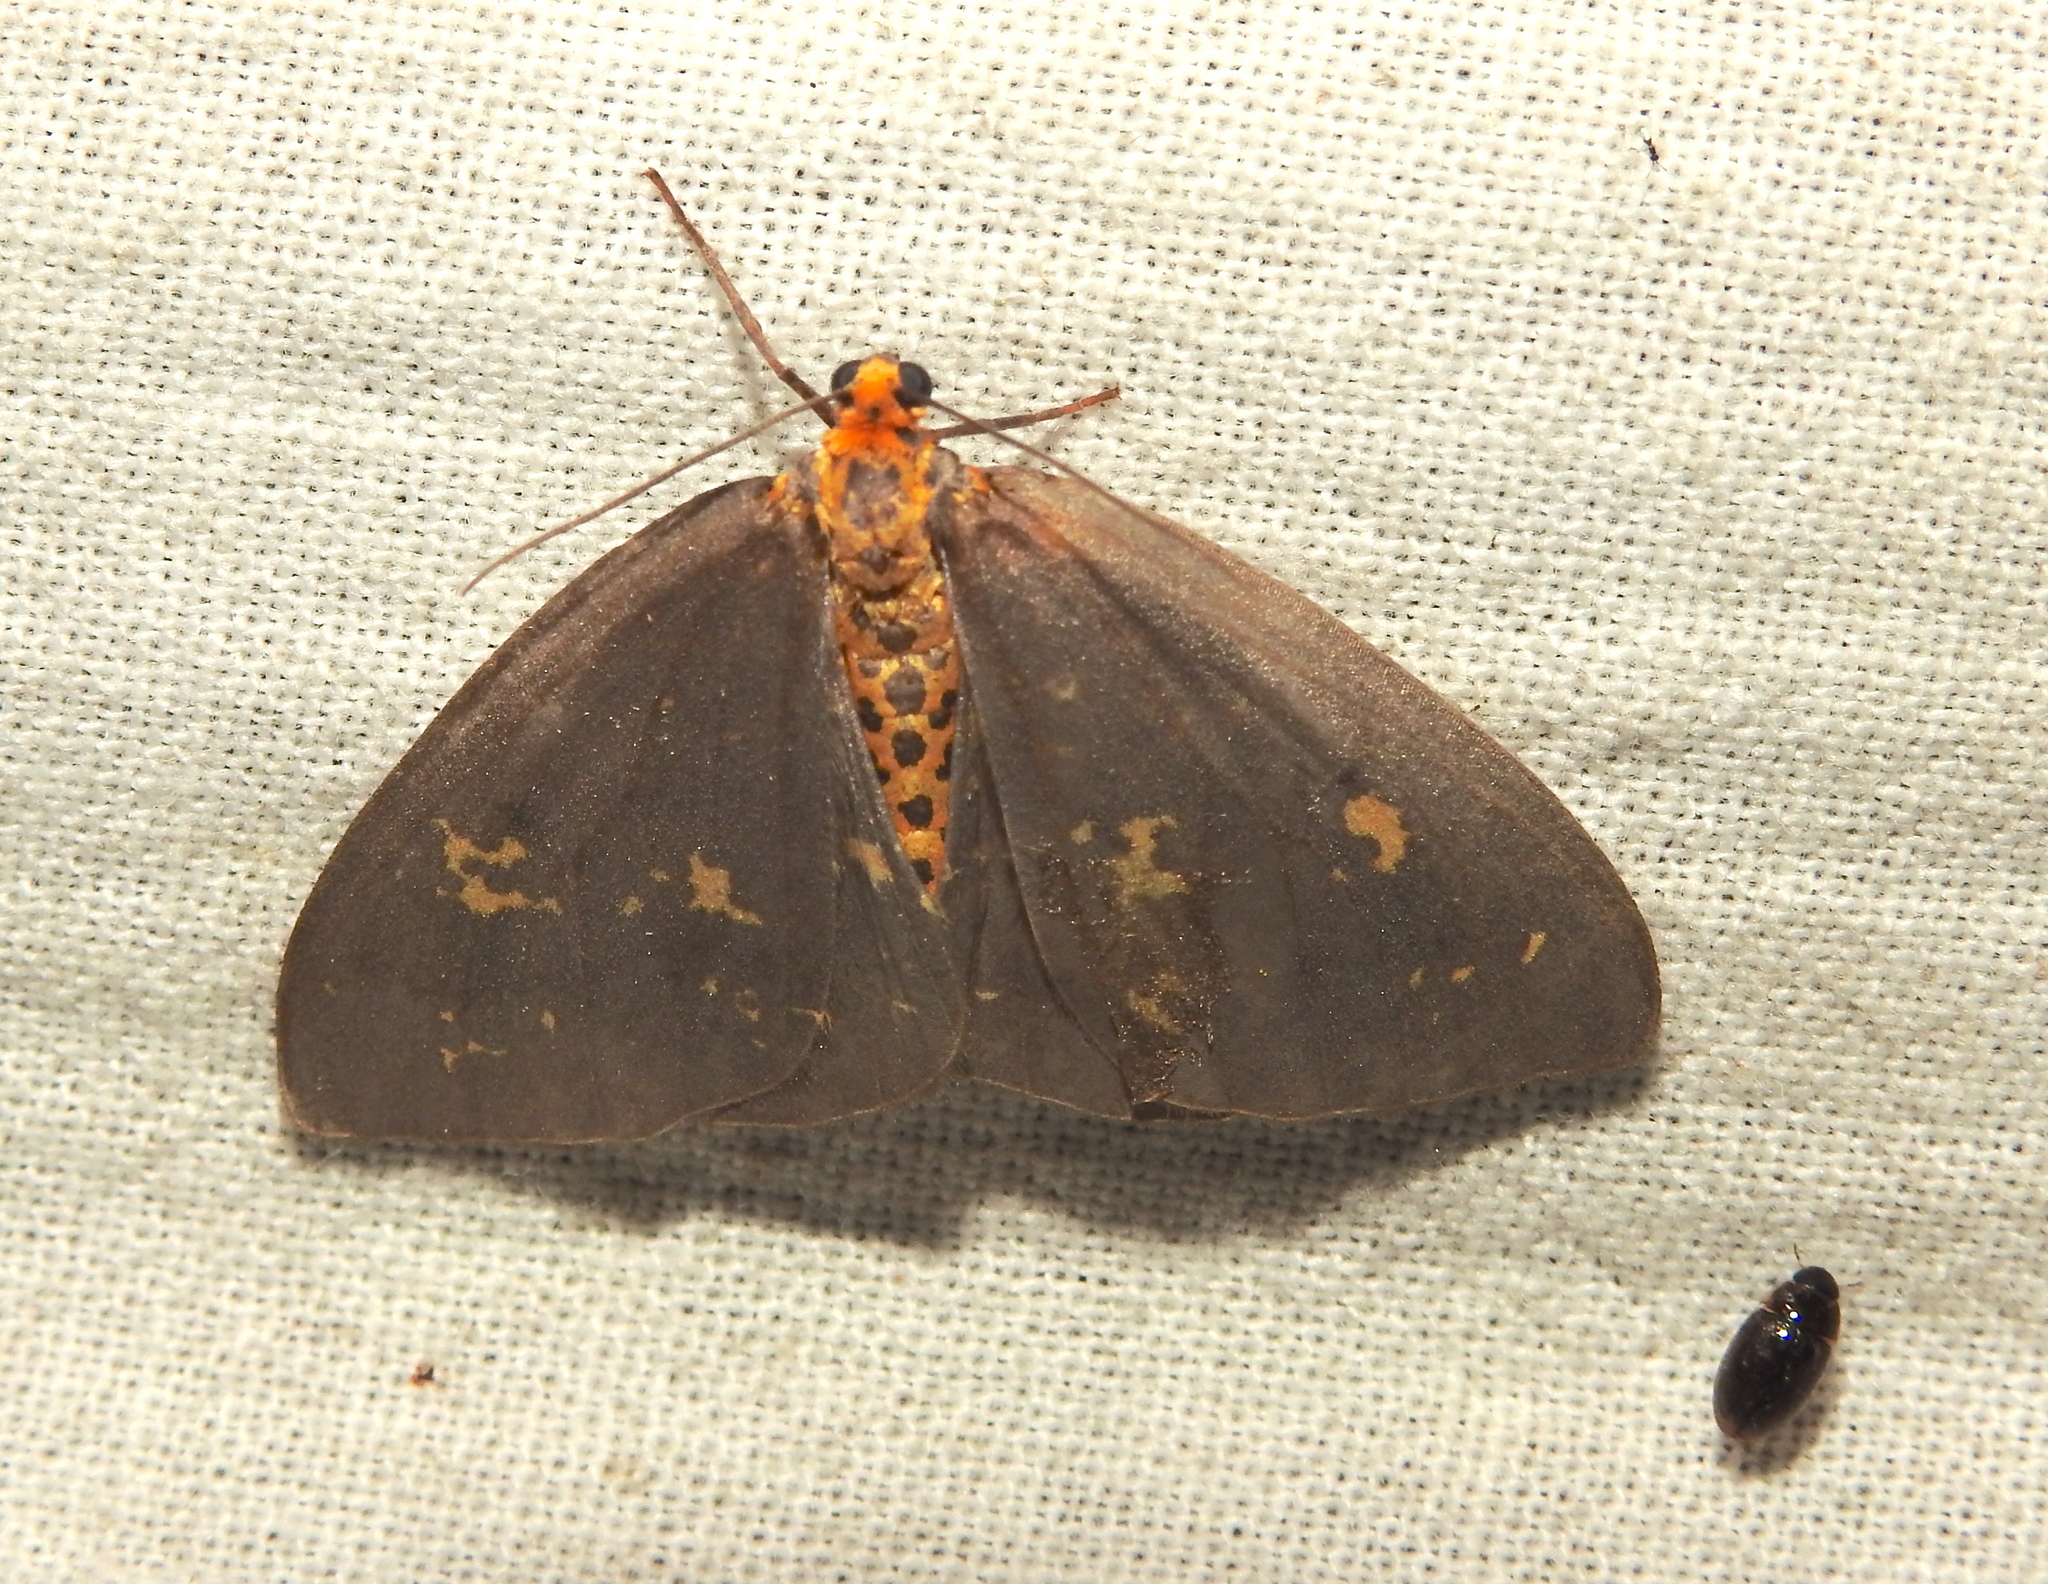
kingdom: Animalia
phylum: Arthropoda
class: Insecta
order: Lepidoptera
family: Geometridae
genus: Abraxas
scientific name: Abraxas poliaria
